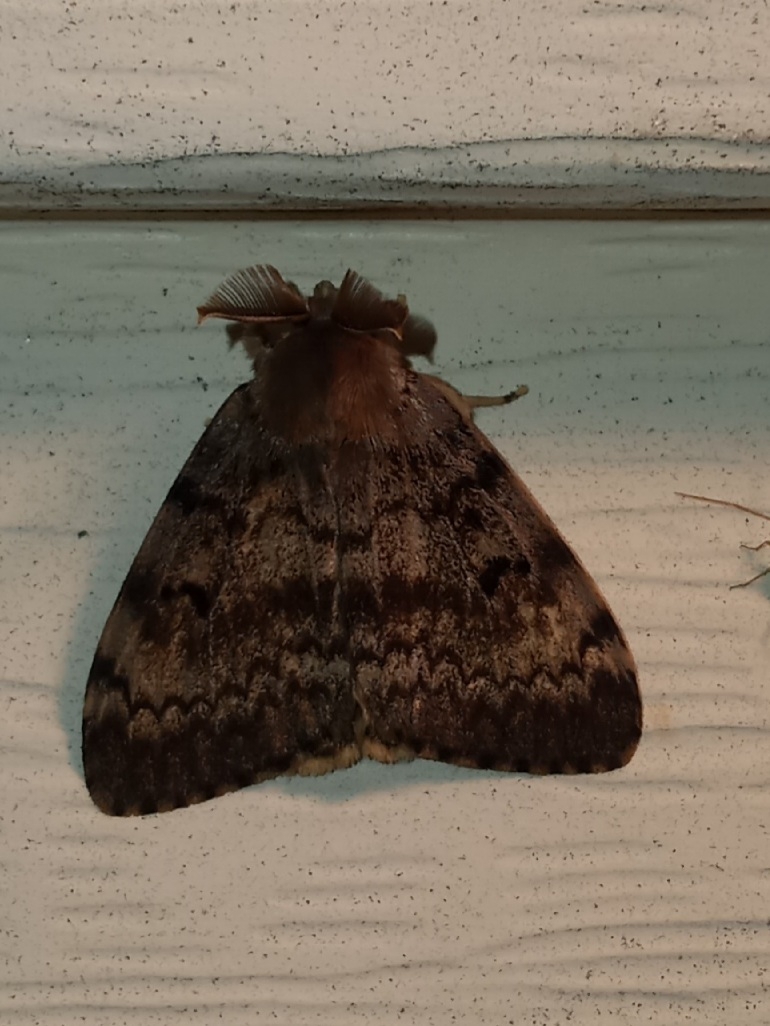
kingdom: Animalia
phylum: Arthropoda
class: Insecta
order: Lepidoptera
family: Erebidae
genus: Lymantria
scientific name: Lymantria dispar
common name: Gypsy moth
